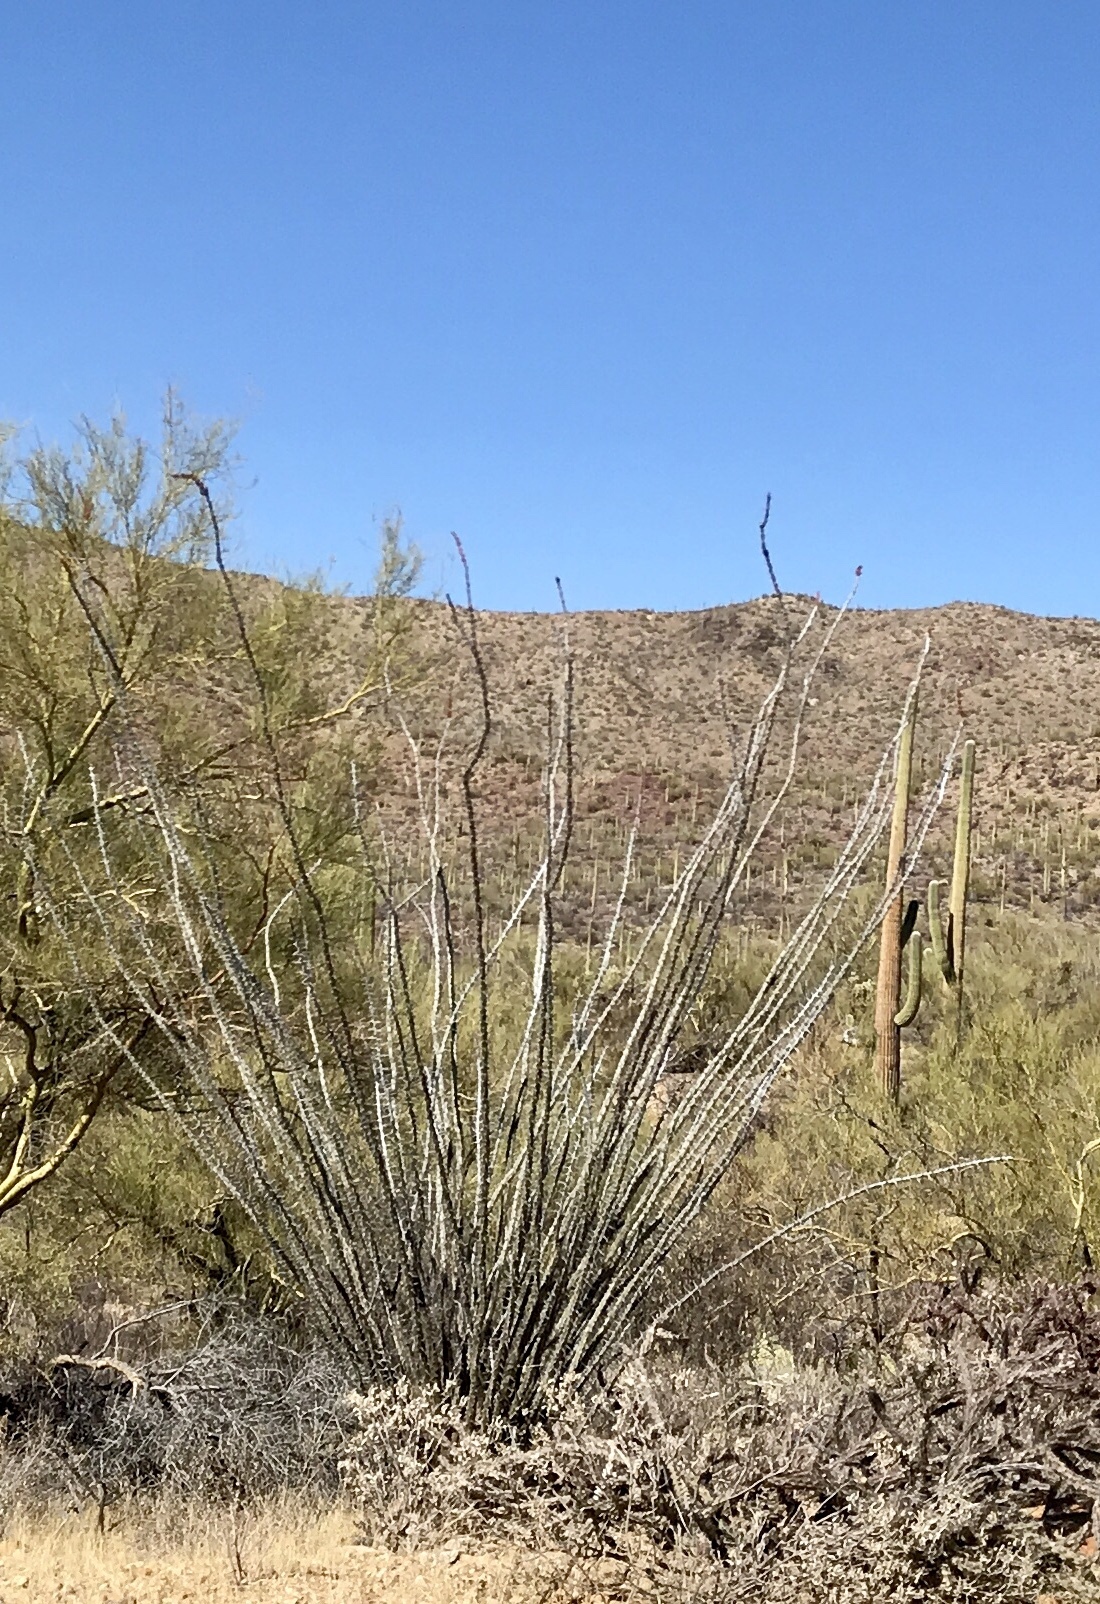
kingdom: Plantae
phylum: Tracheophyta
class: Magnoliopsida
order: Ericales
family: Fouquieriaceae
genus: Fouquieria
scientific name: Fouquieria splendens
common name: Vine-cactus
